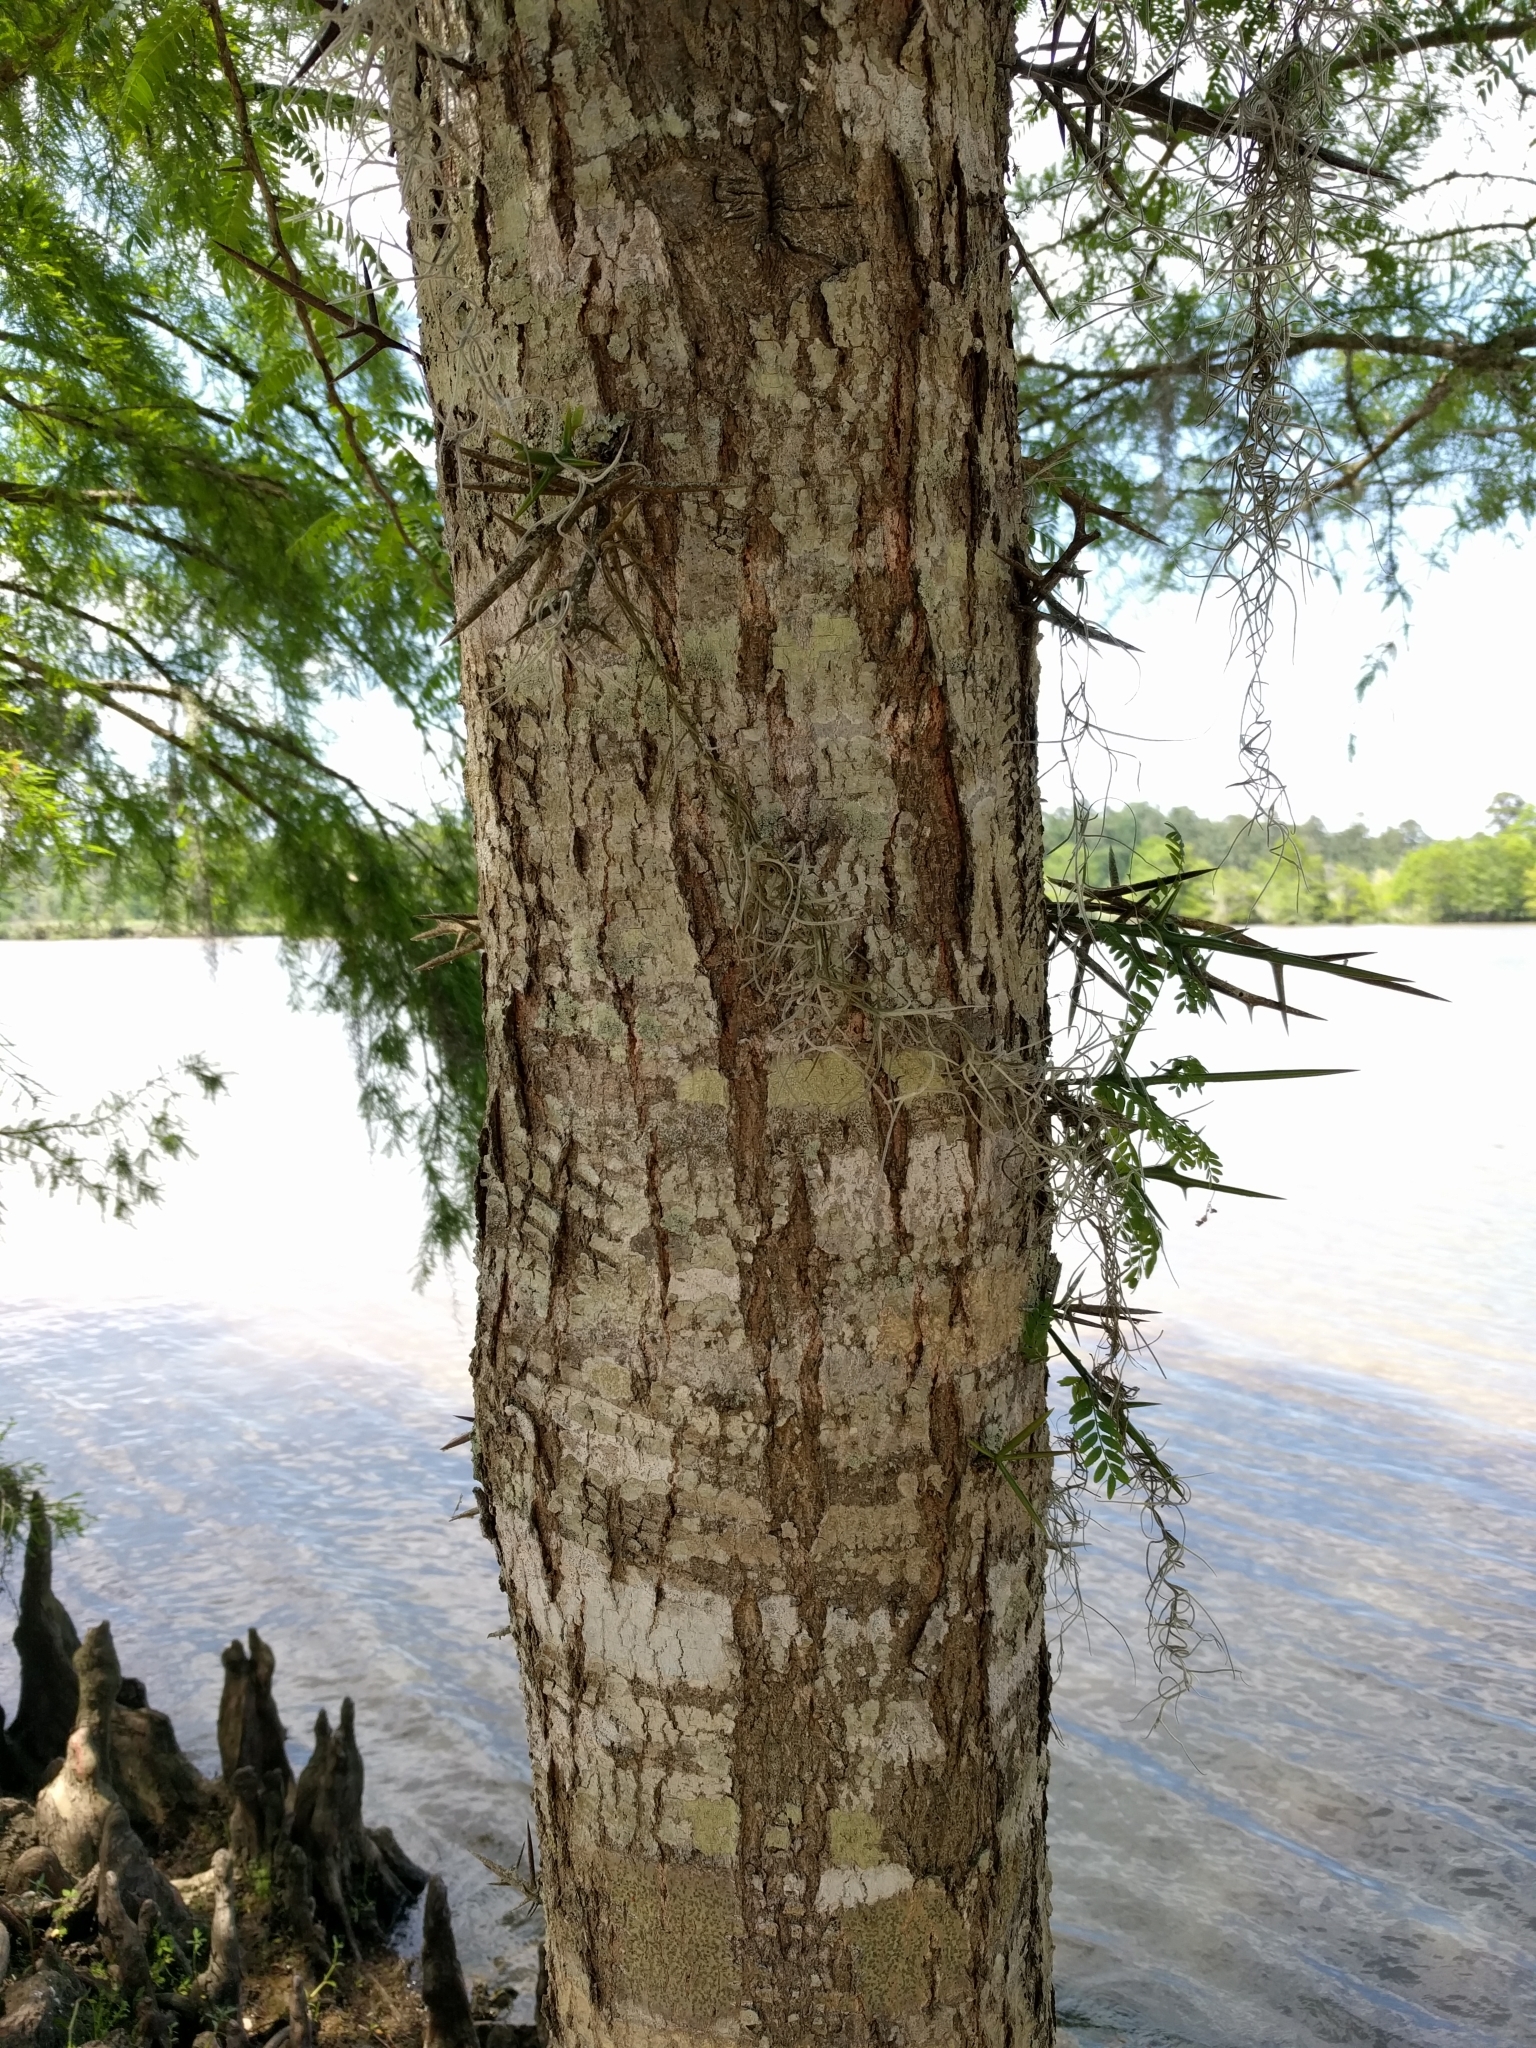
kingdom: Plantae
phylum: Tracheophyta
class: Magnoliopsida
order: Fabales
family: Fabaceae
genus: Gleditsia
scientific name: Gleditsia triacanthos
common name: Common honeylocust
